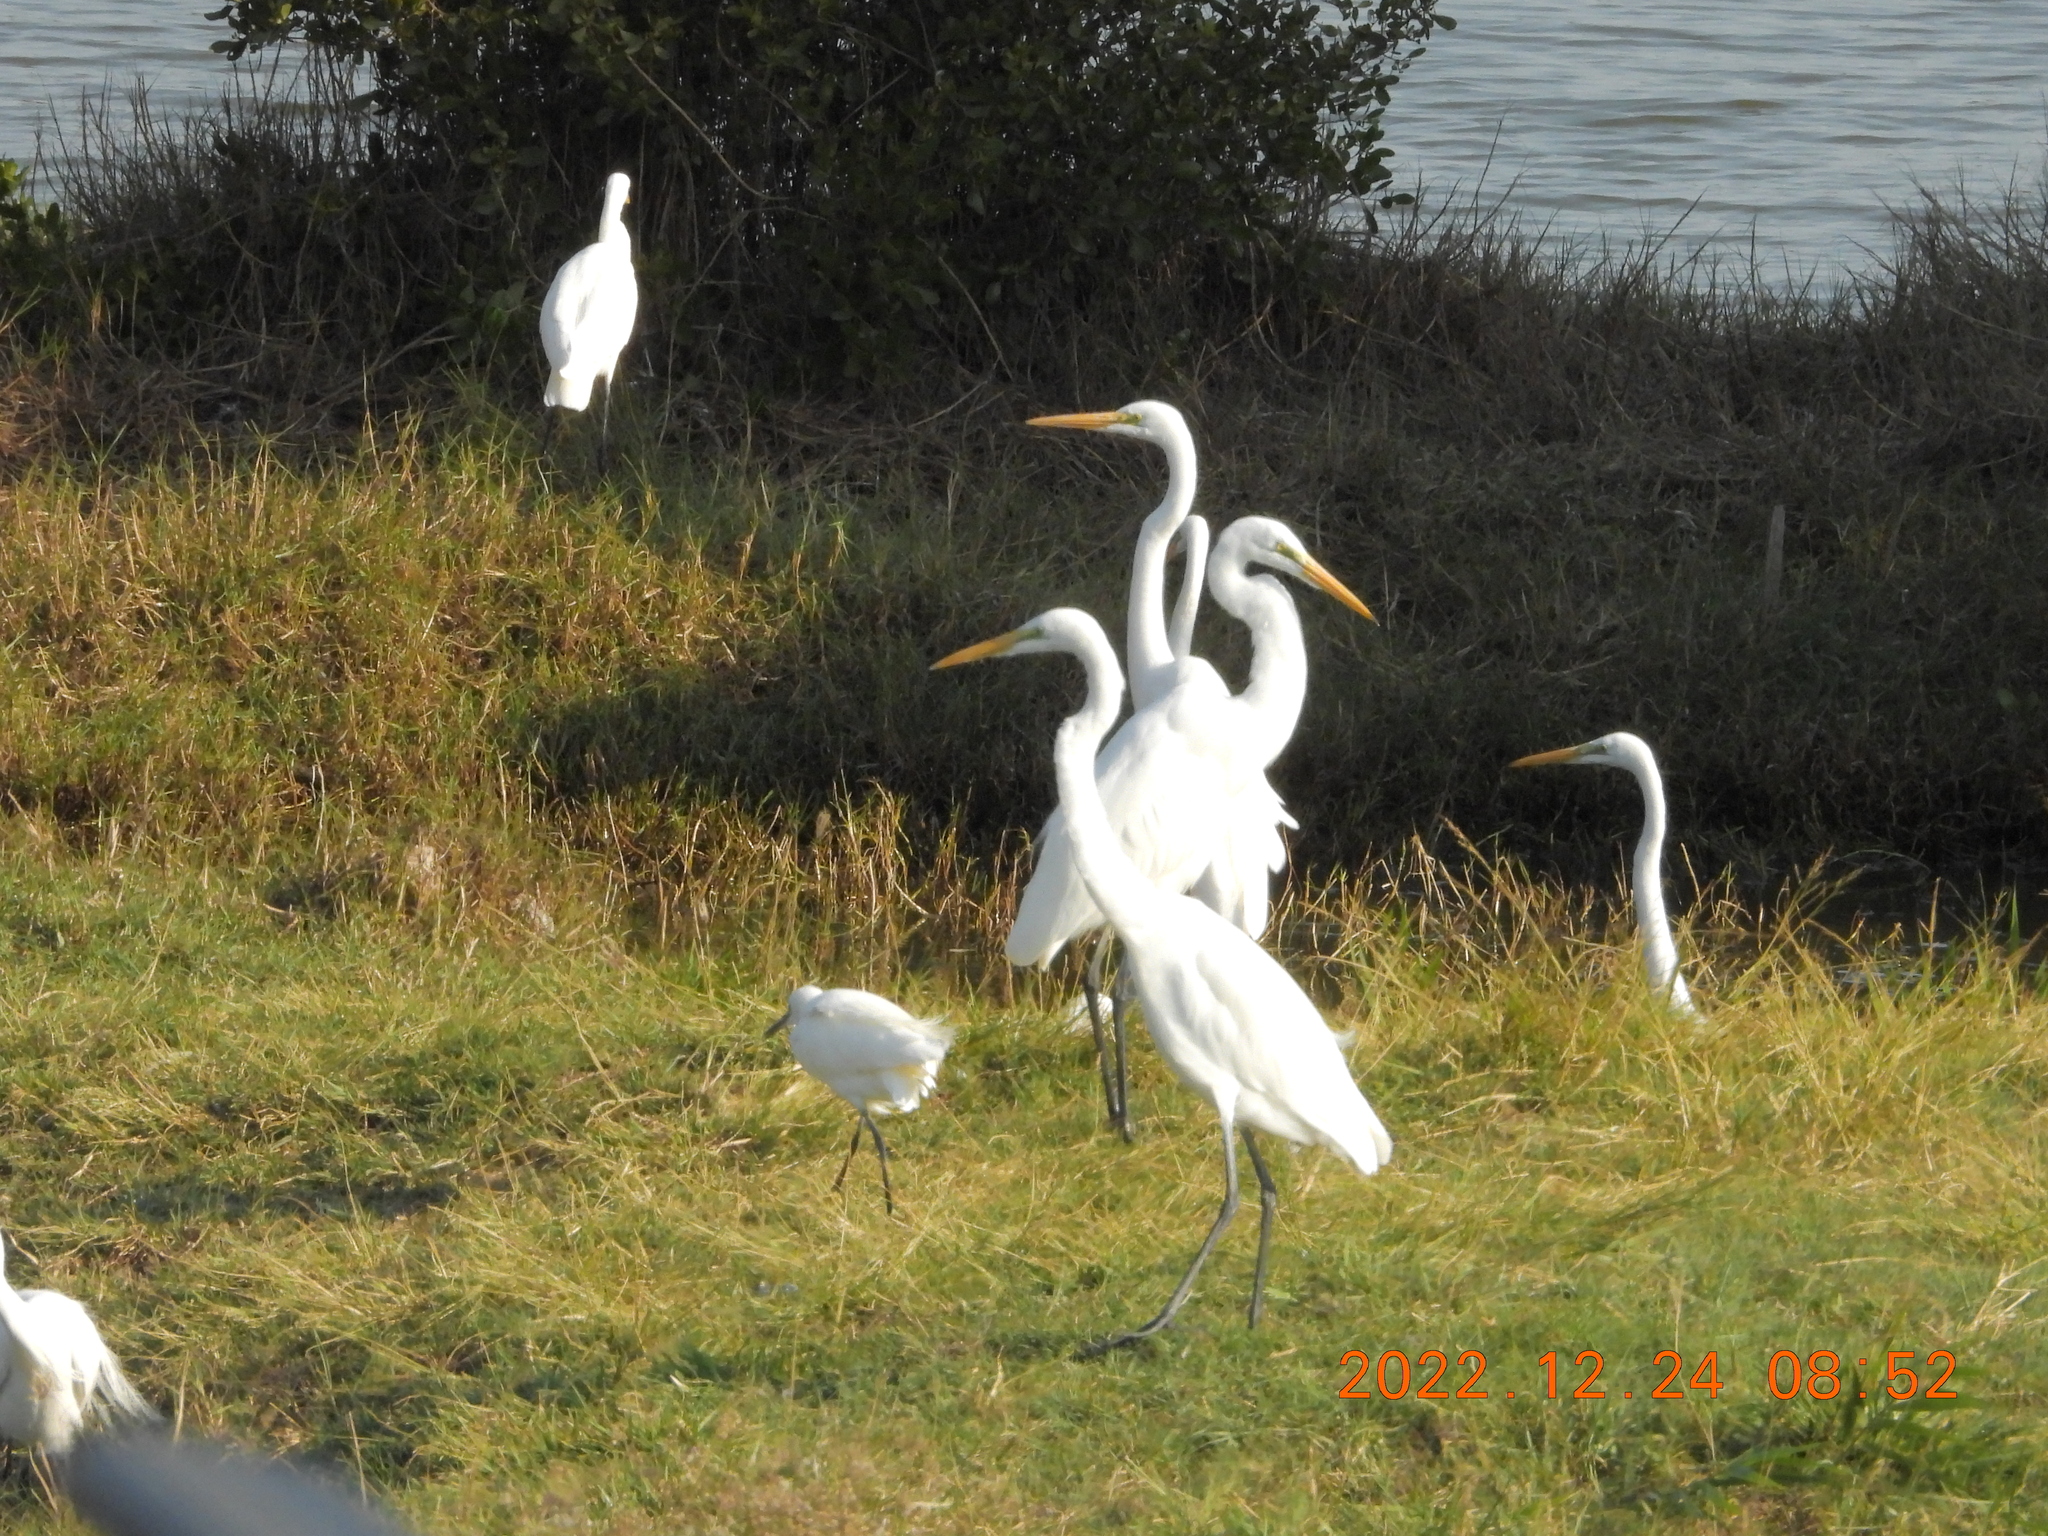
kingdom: Animalia
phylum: Chordata
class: Aves
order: Pelecaniformes
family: Ardeidae
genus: Ardea
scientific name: Ardea alba
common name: Great egret
